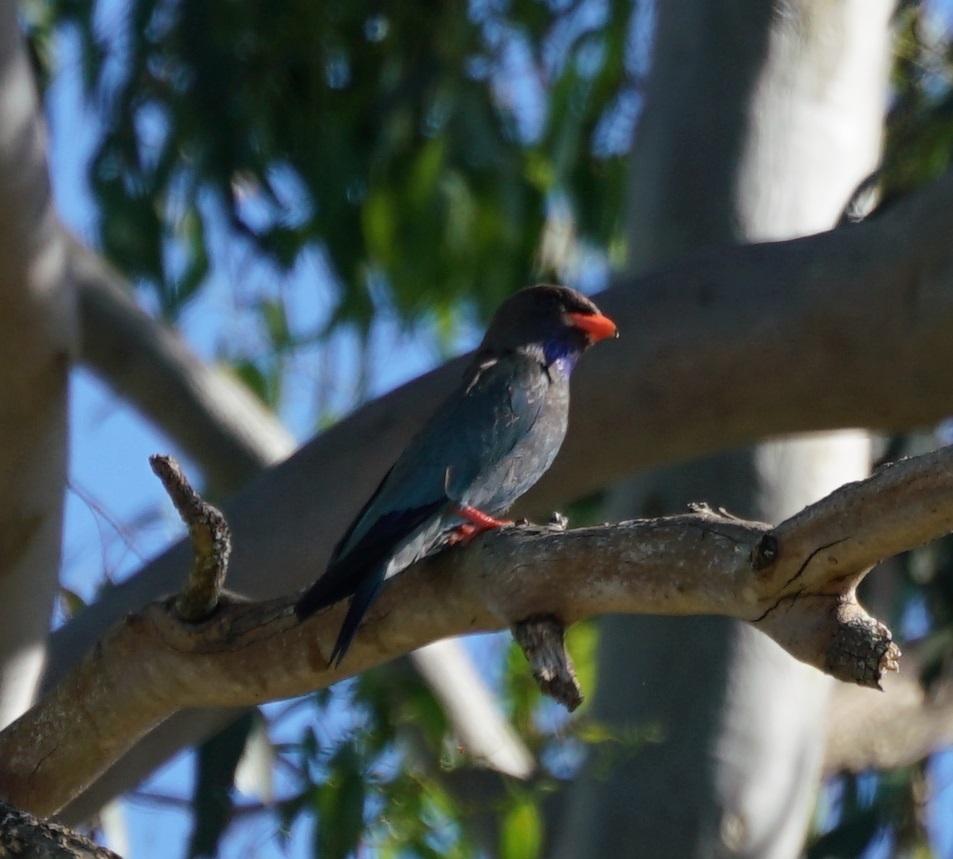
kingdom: Animalia
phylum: Chordata
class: Aves
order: Coraciiformes
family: Coraciidae
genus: Eurystomus
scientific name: Eurystomus orientalis
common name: Oriental dollarbird
